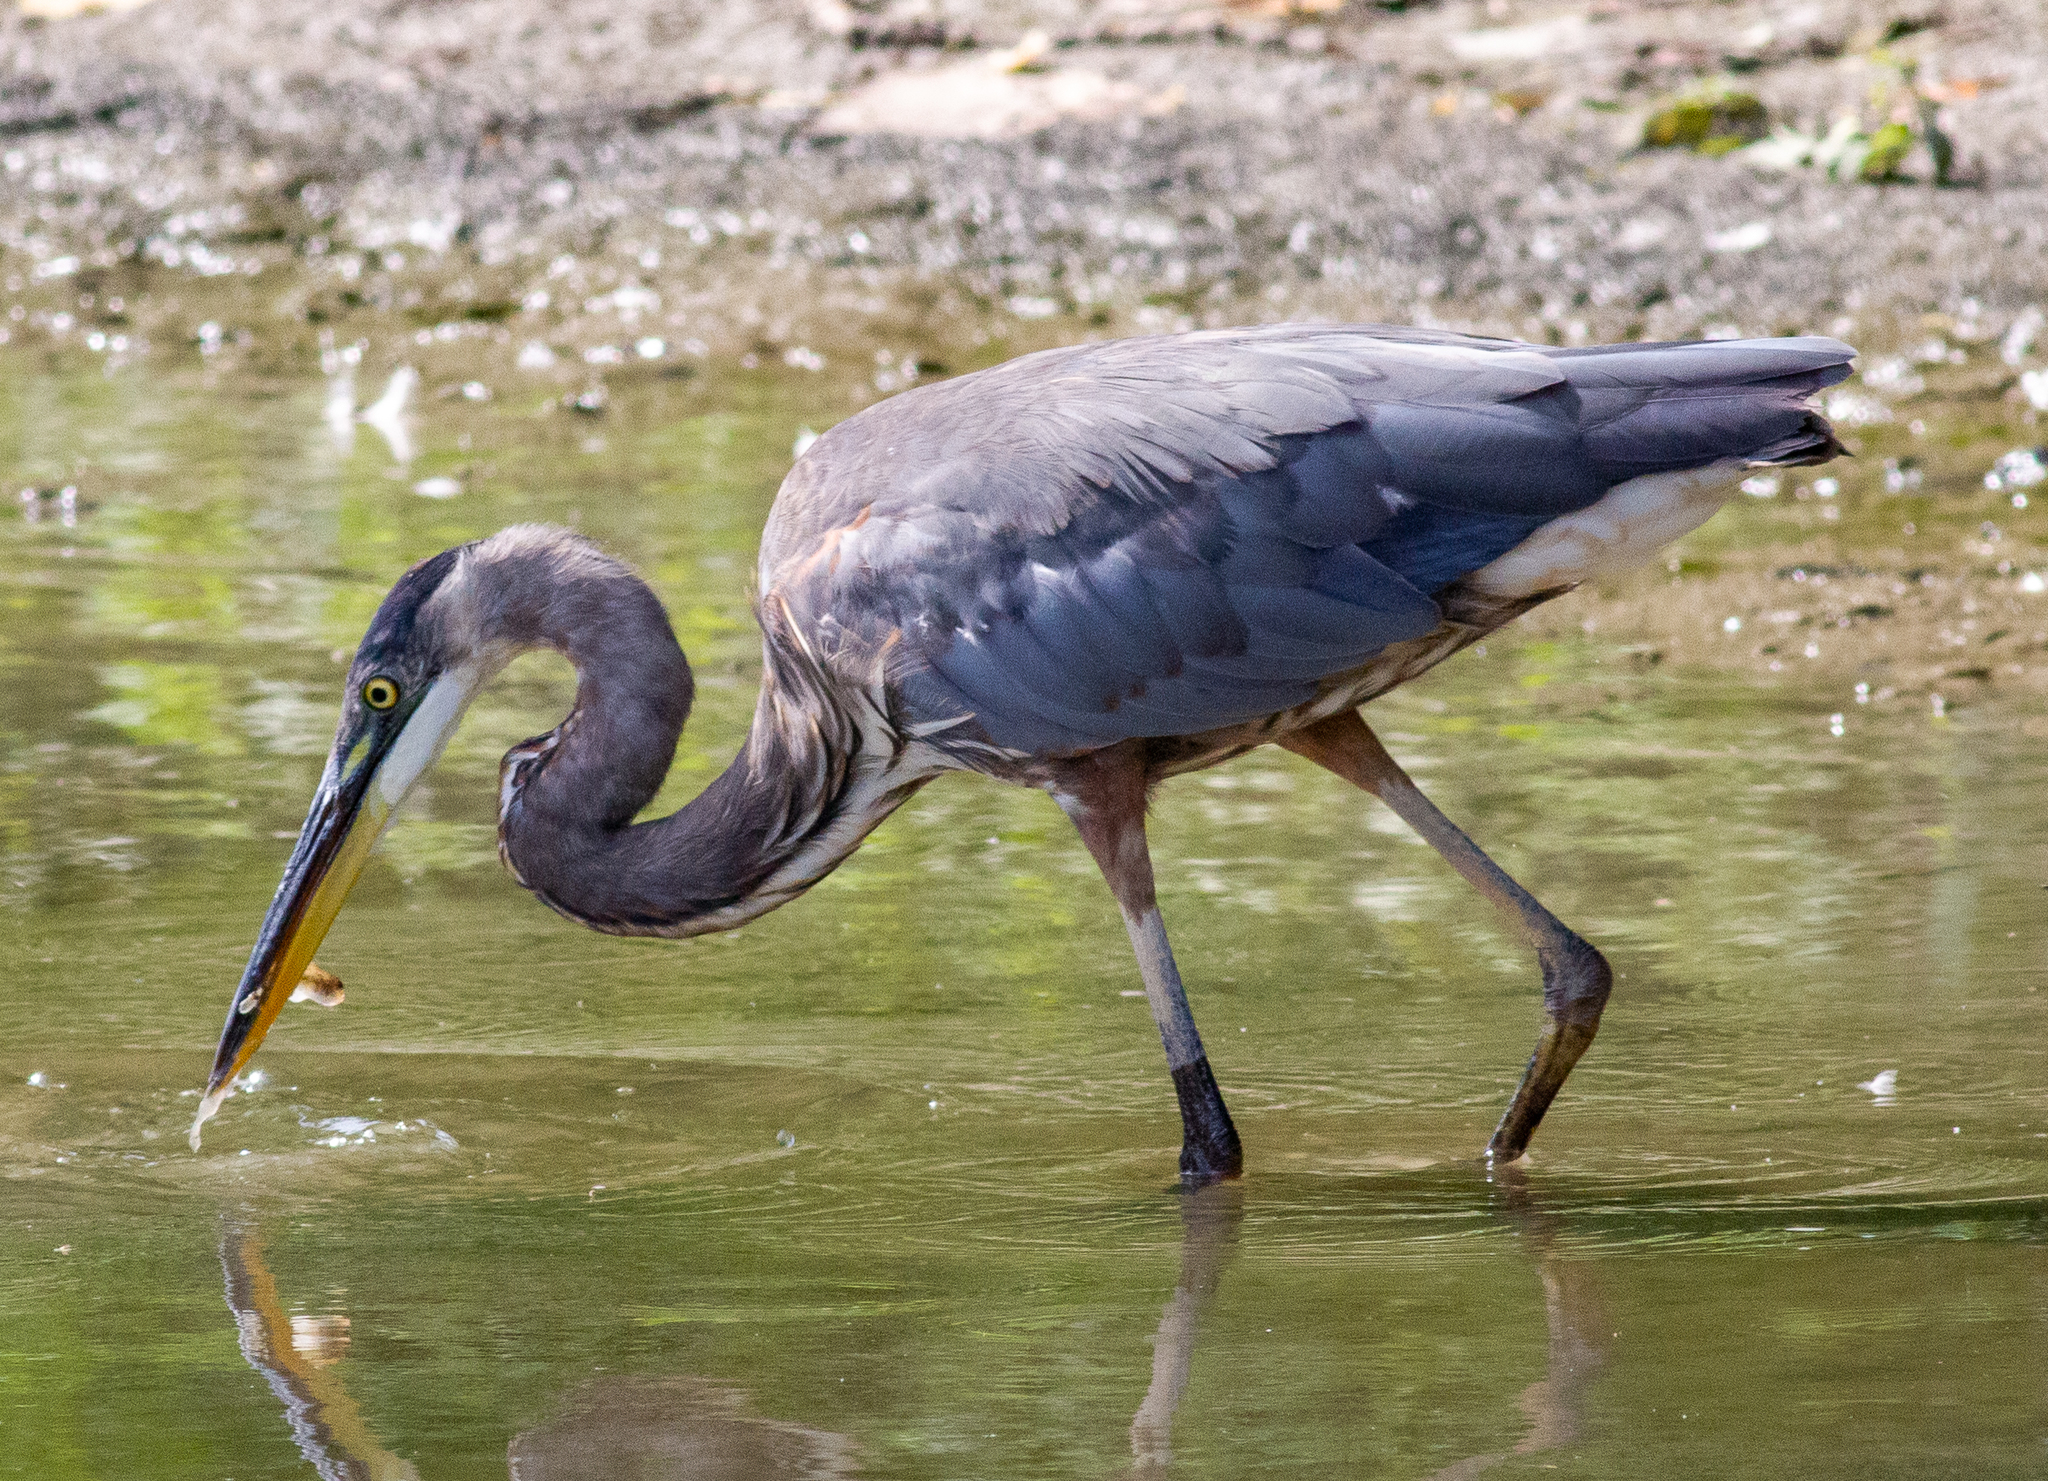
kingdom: Animalia
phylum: Chordata
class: Aves
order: Pelecaniformes
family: Ardeidae
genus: Ardea
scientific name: Ardea herodias
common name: Great blue heron
